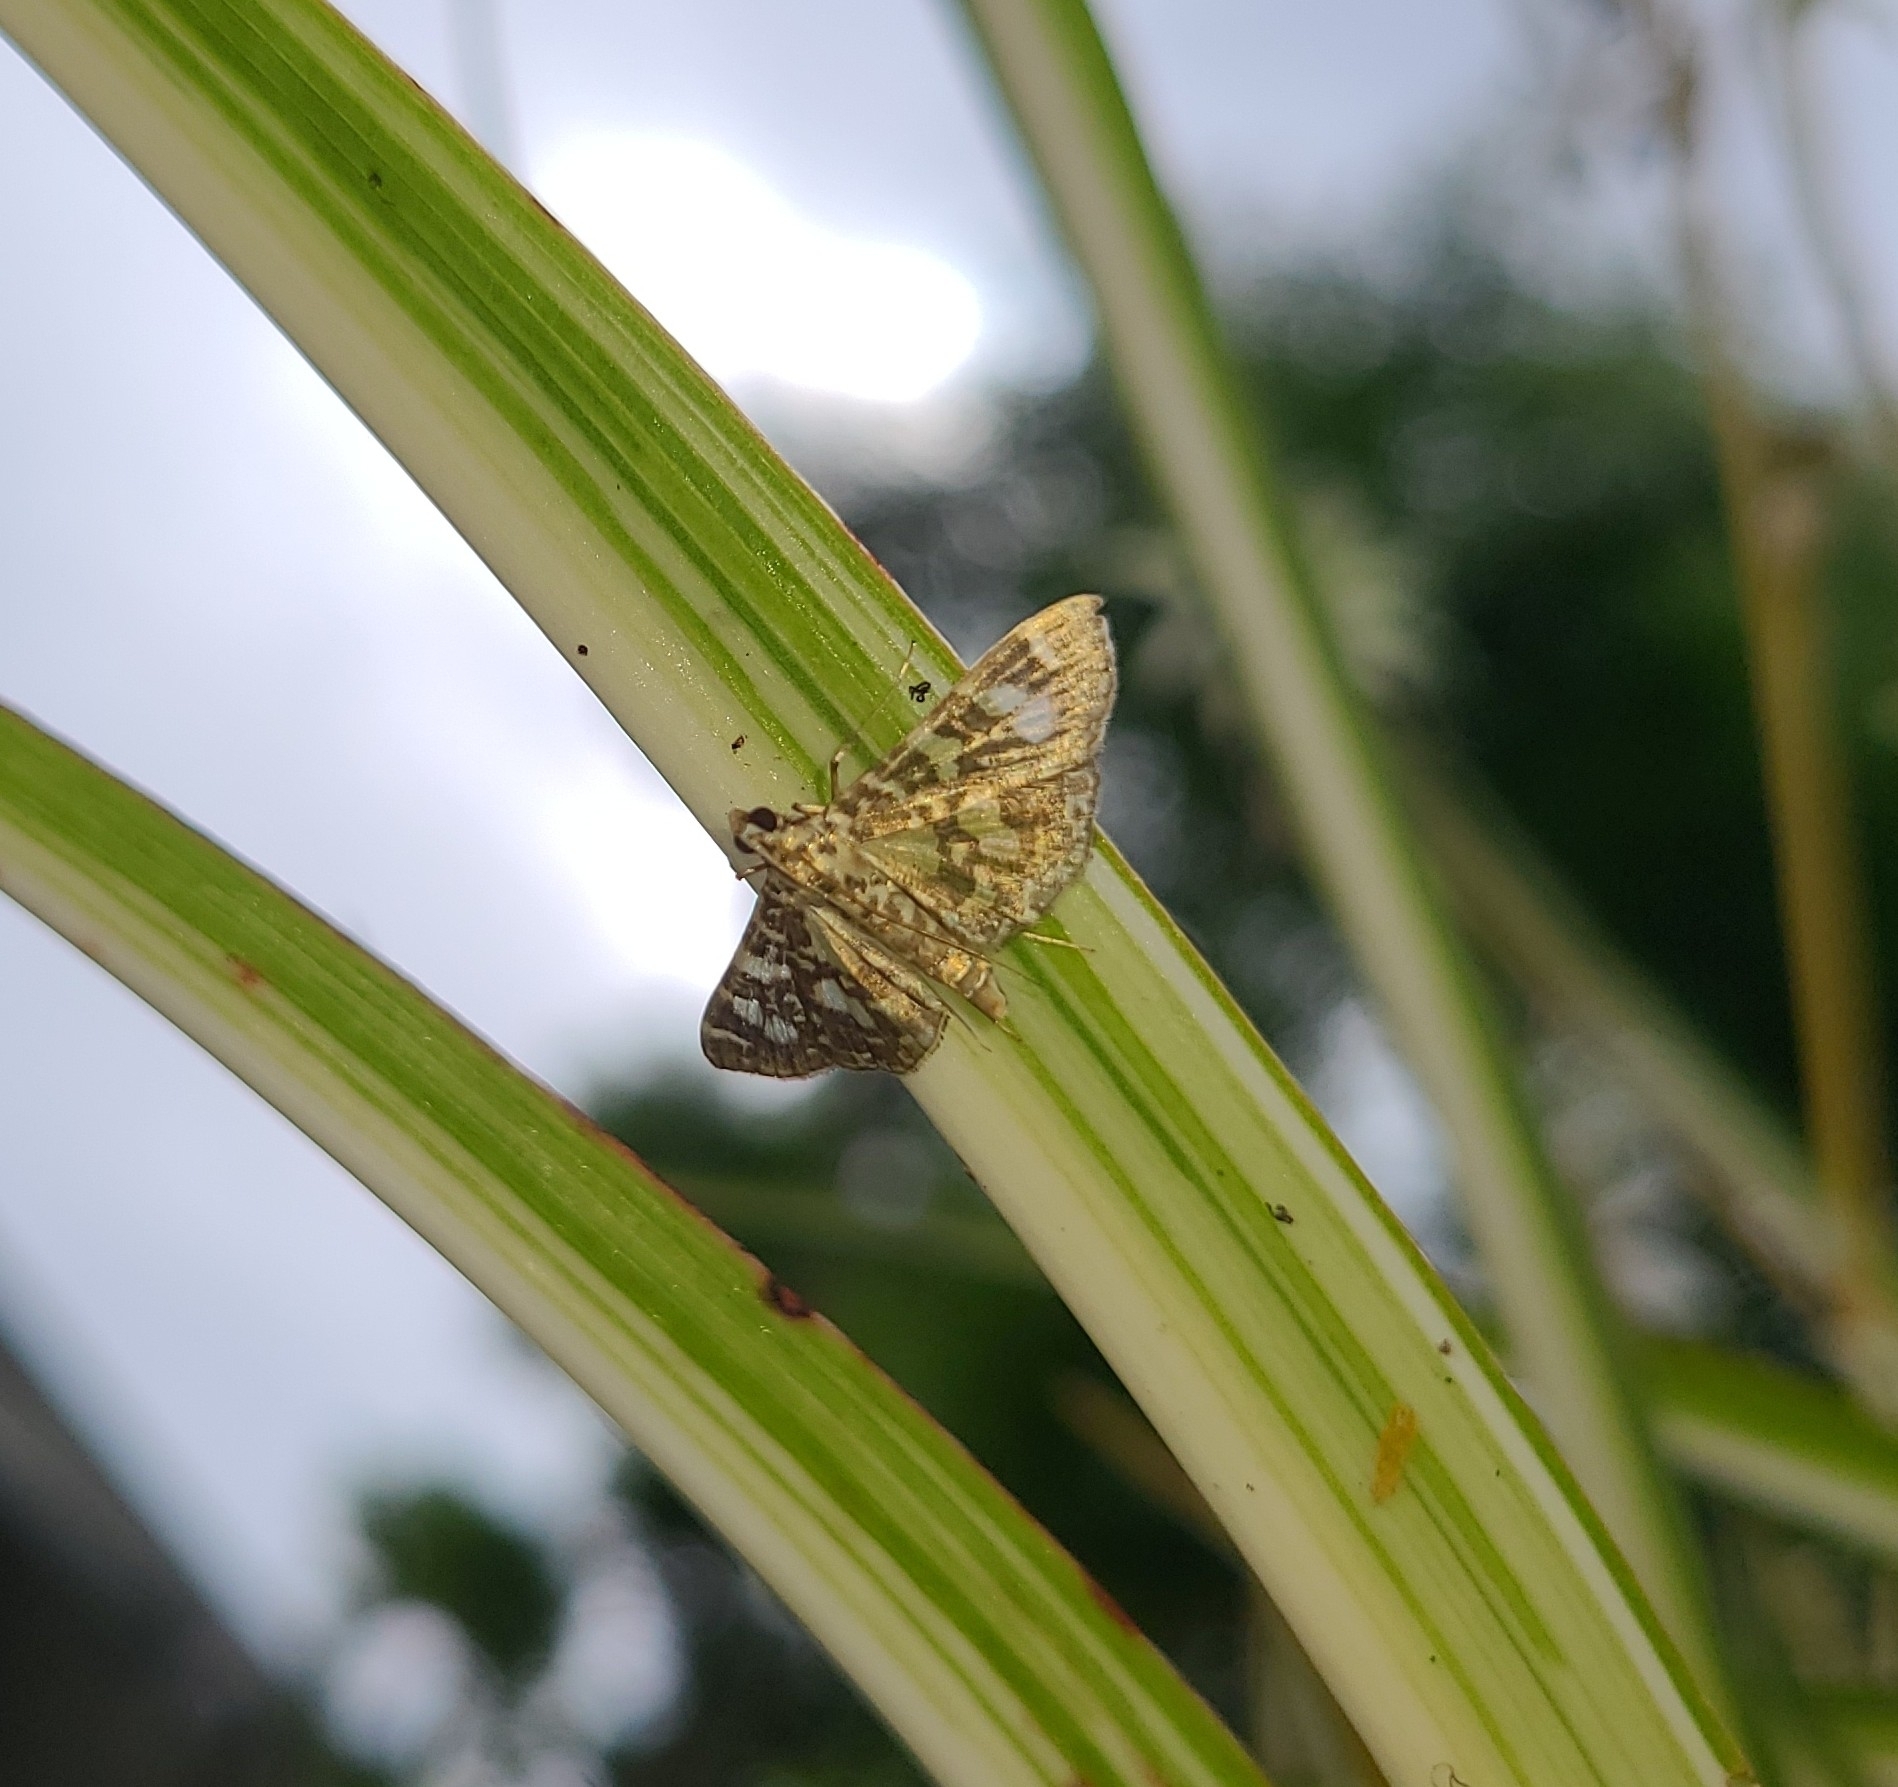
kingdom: Animalia
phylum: Arthropoda
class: Insecta
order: Lepidoptera
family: Crambidae
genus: Glyphodes
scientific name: Glyphodes onychinalis
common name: Swan plant moth
